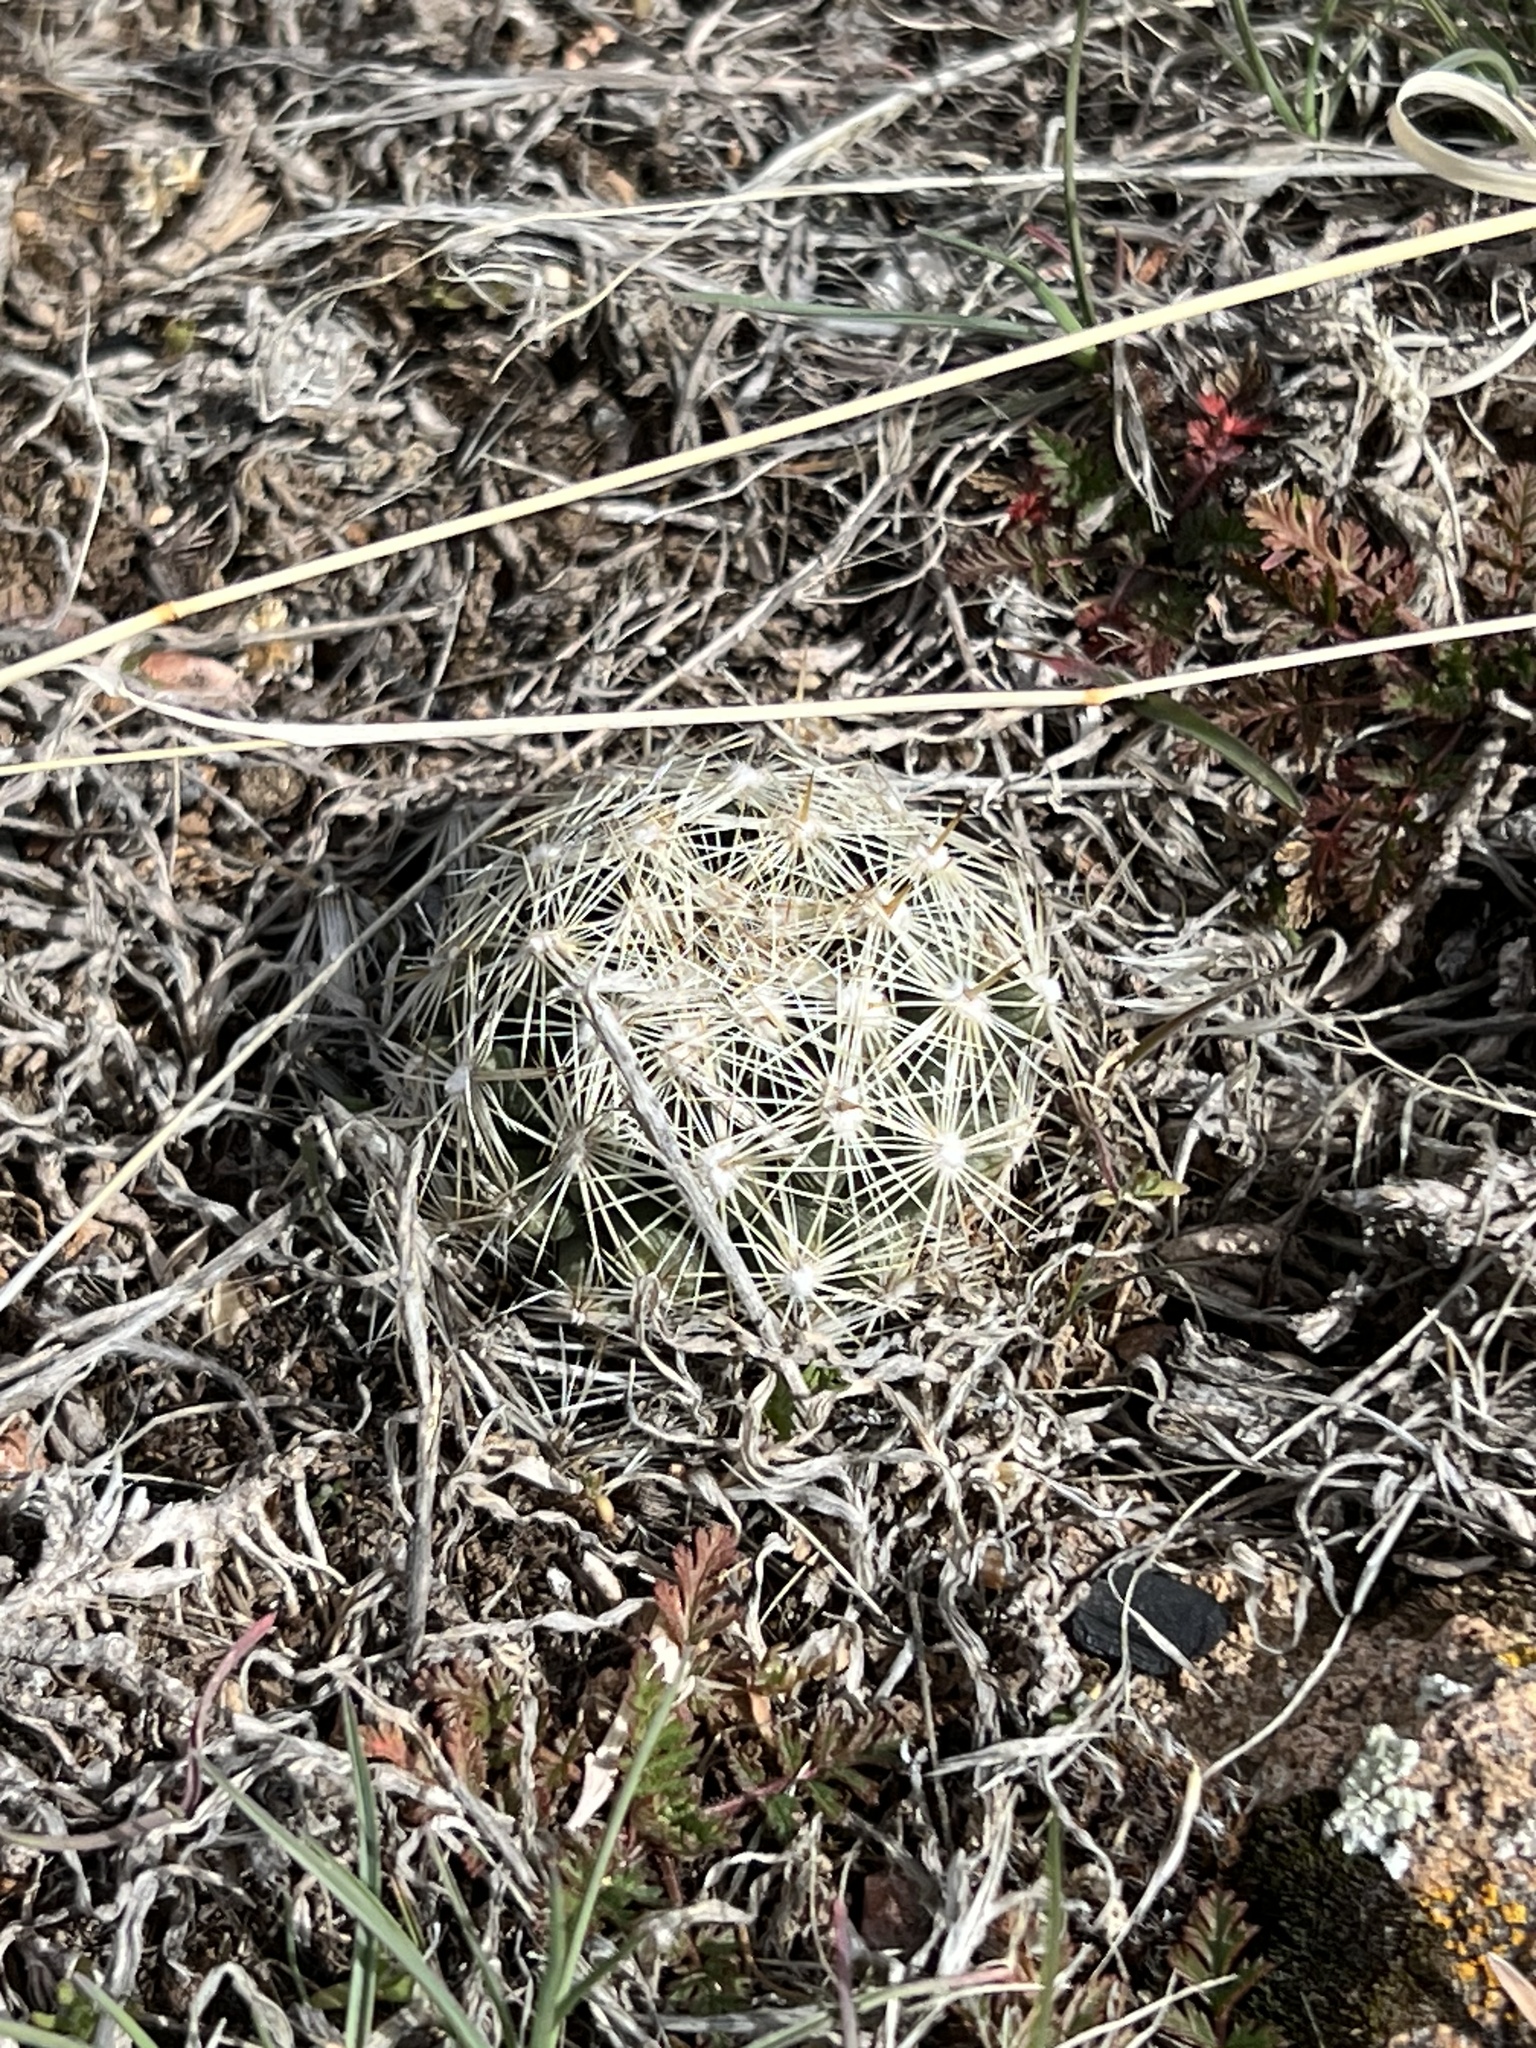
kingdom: Plantae
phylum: Tracheophyta
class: Magnoliopsida
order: Caryophyllales
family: Cactaceae
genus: Pelecyphora
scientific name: Pelecyphora vivipara
